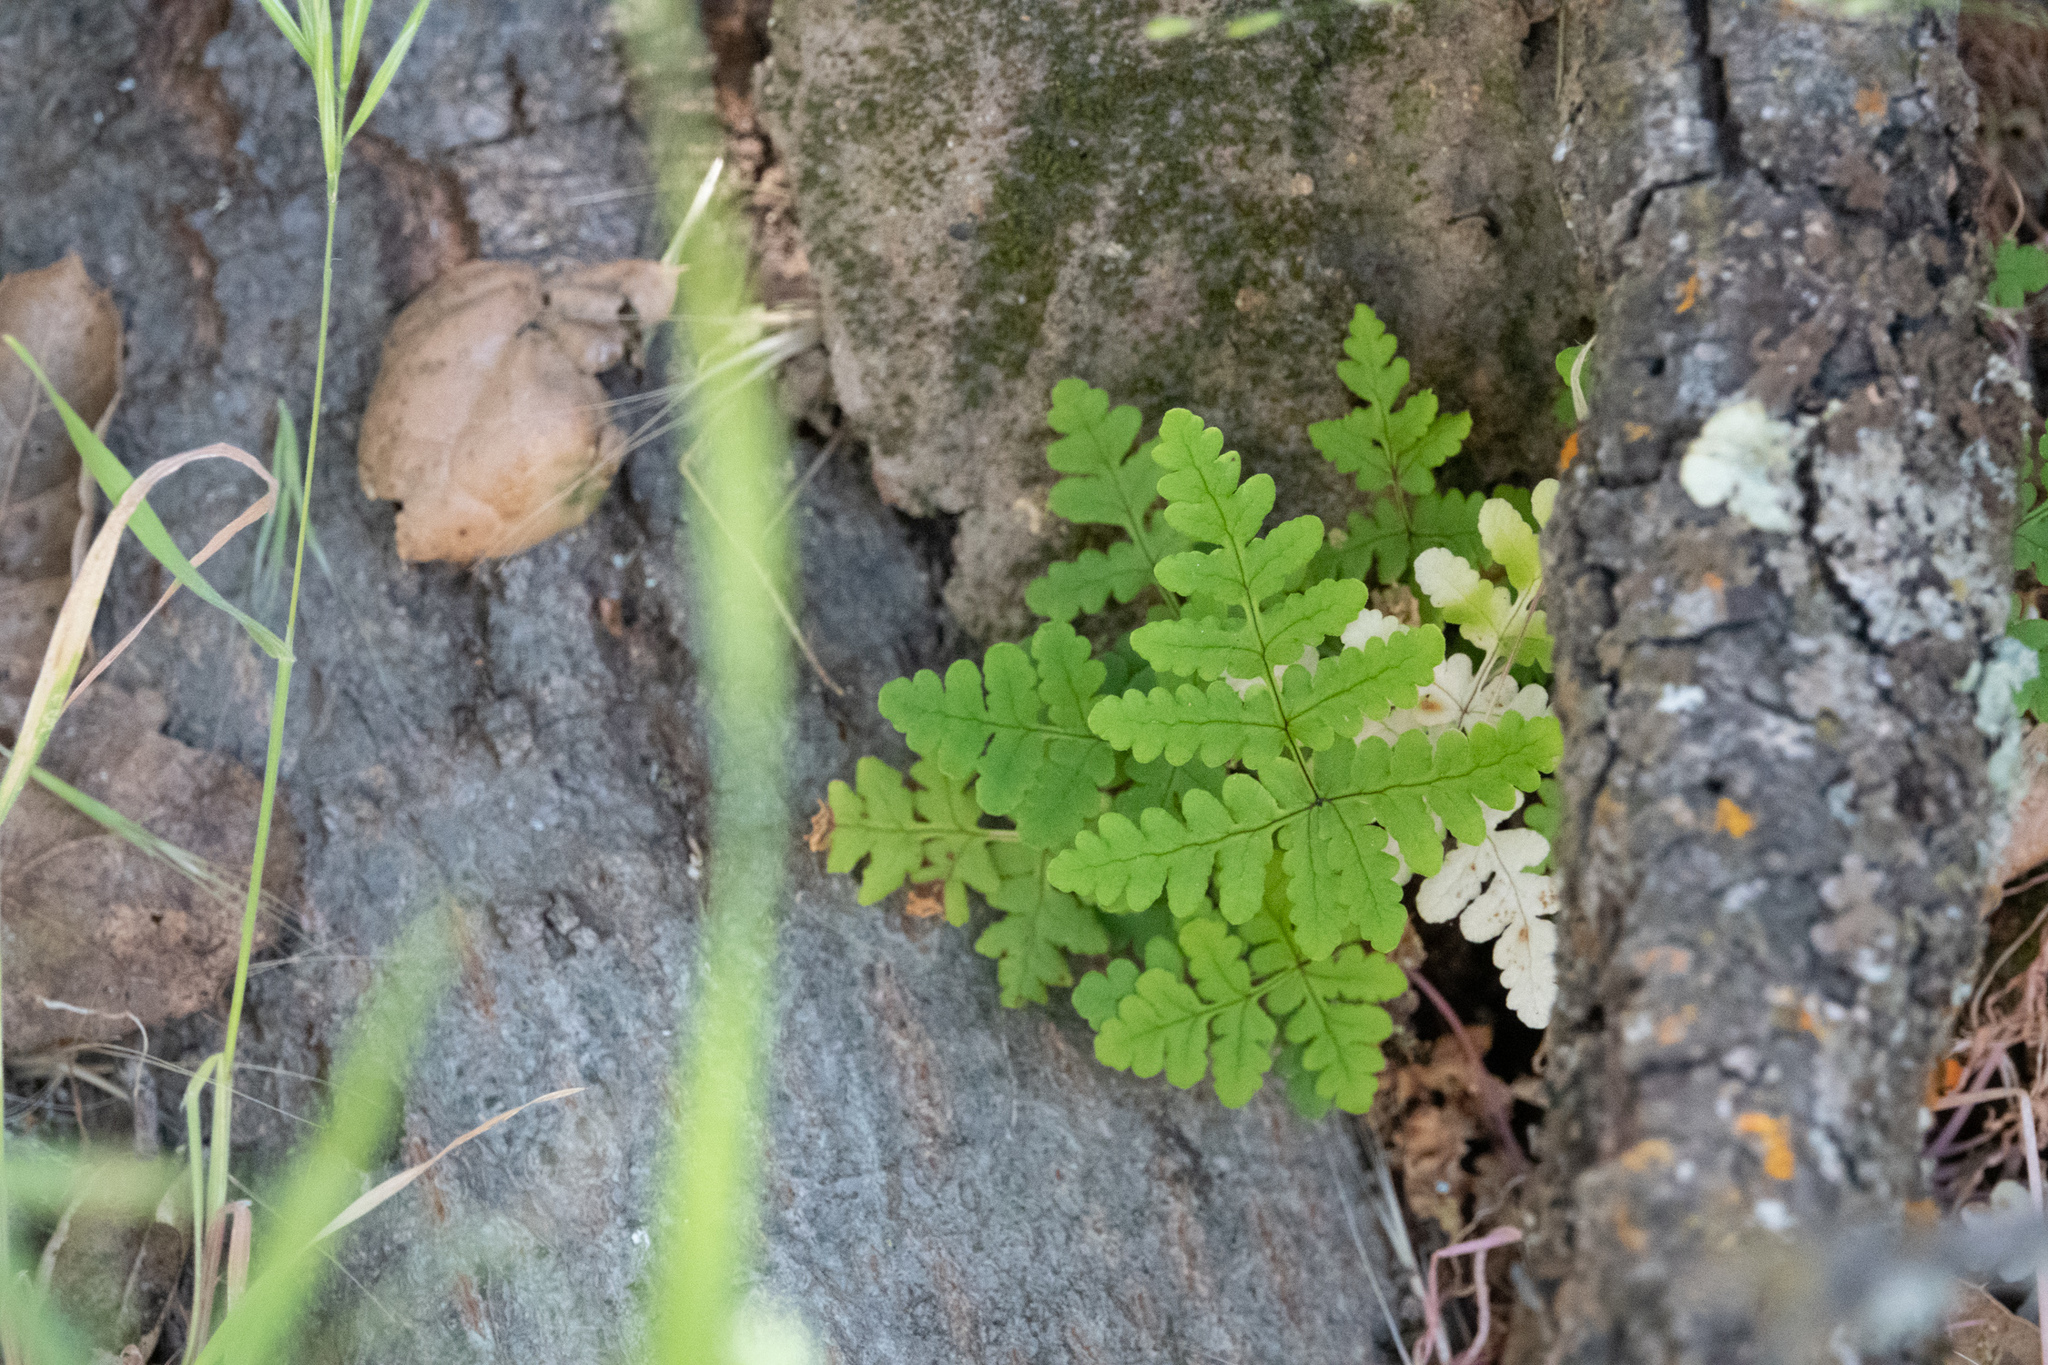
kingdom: Plantae
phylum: Tracheophyta
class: Polypodiopsida
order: Polypodiales
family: Pteridaceae
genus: Pentagramma
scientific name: Pentagramma triangularis
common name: Gold fern
